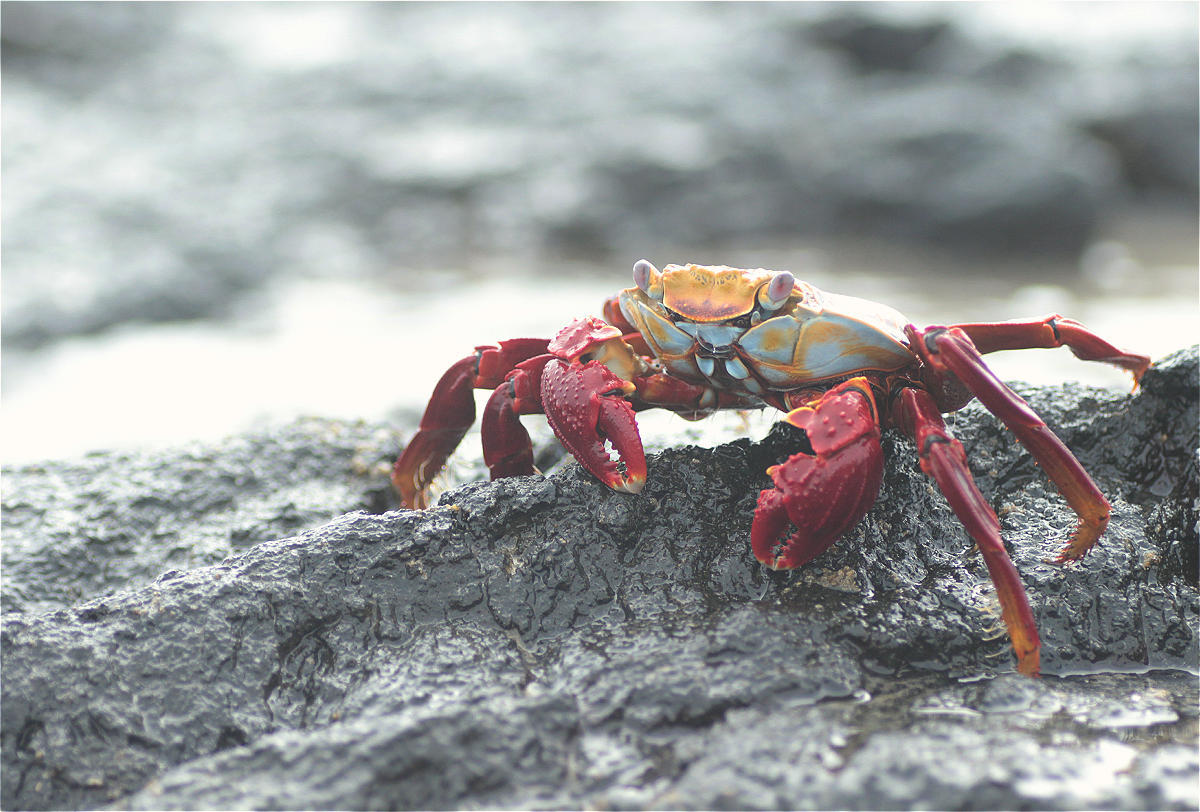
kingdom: Animalia
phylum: Arthropoda
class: Malacostraca
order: Decapoda
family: Grapsidae
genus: Grapsus
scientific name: Grapsus grapsus
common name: Sally lightfoot
